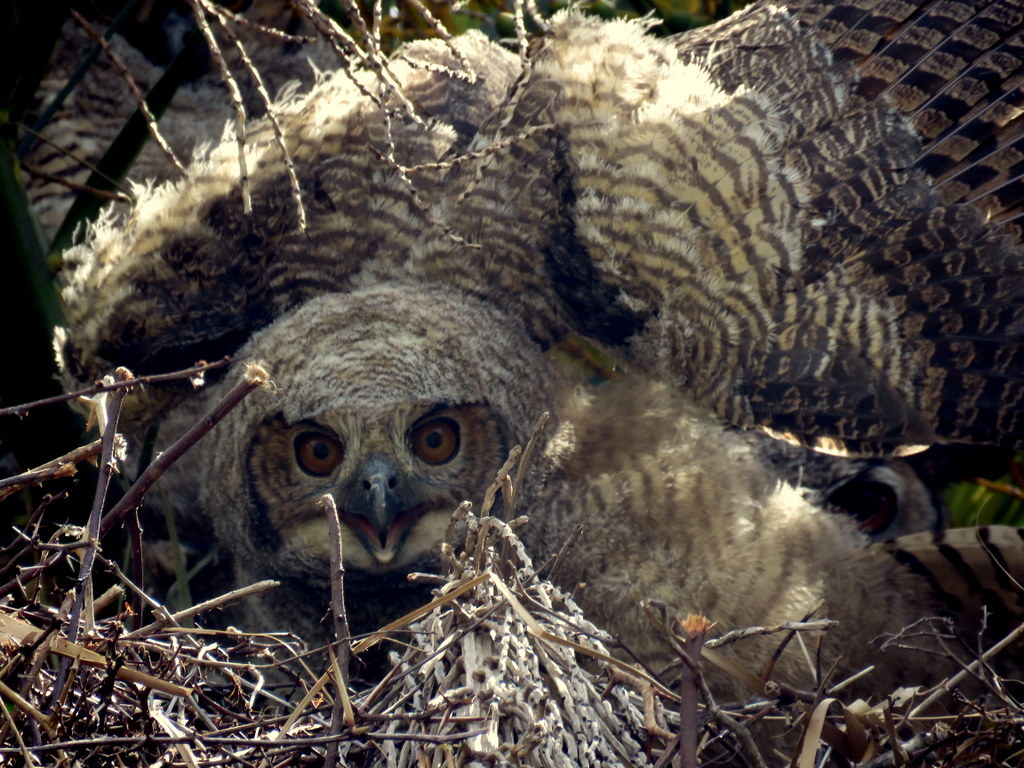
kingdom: Animalia
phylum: Chordata
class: Aves
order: Strigiformes
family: Strigidae
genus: Bubo
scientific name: Bubo virginianus
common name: Great horned owl
